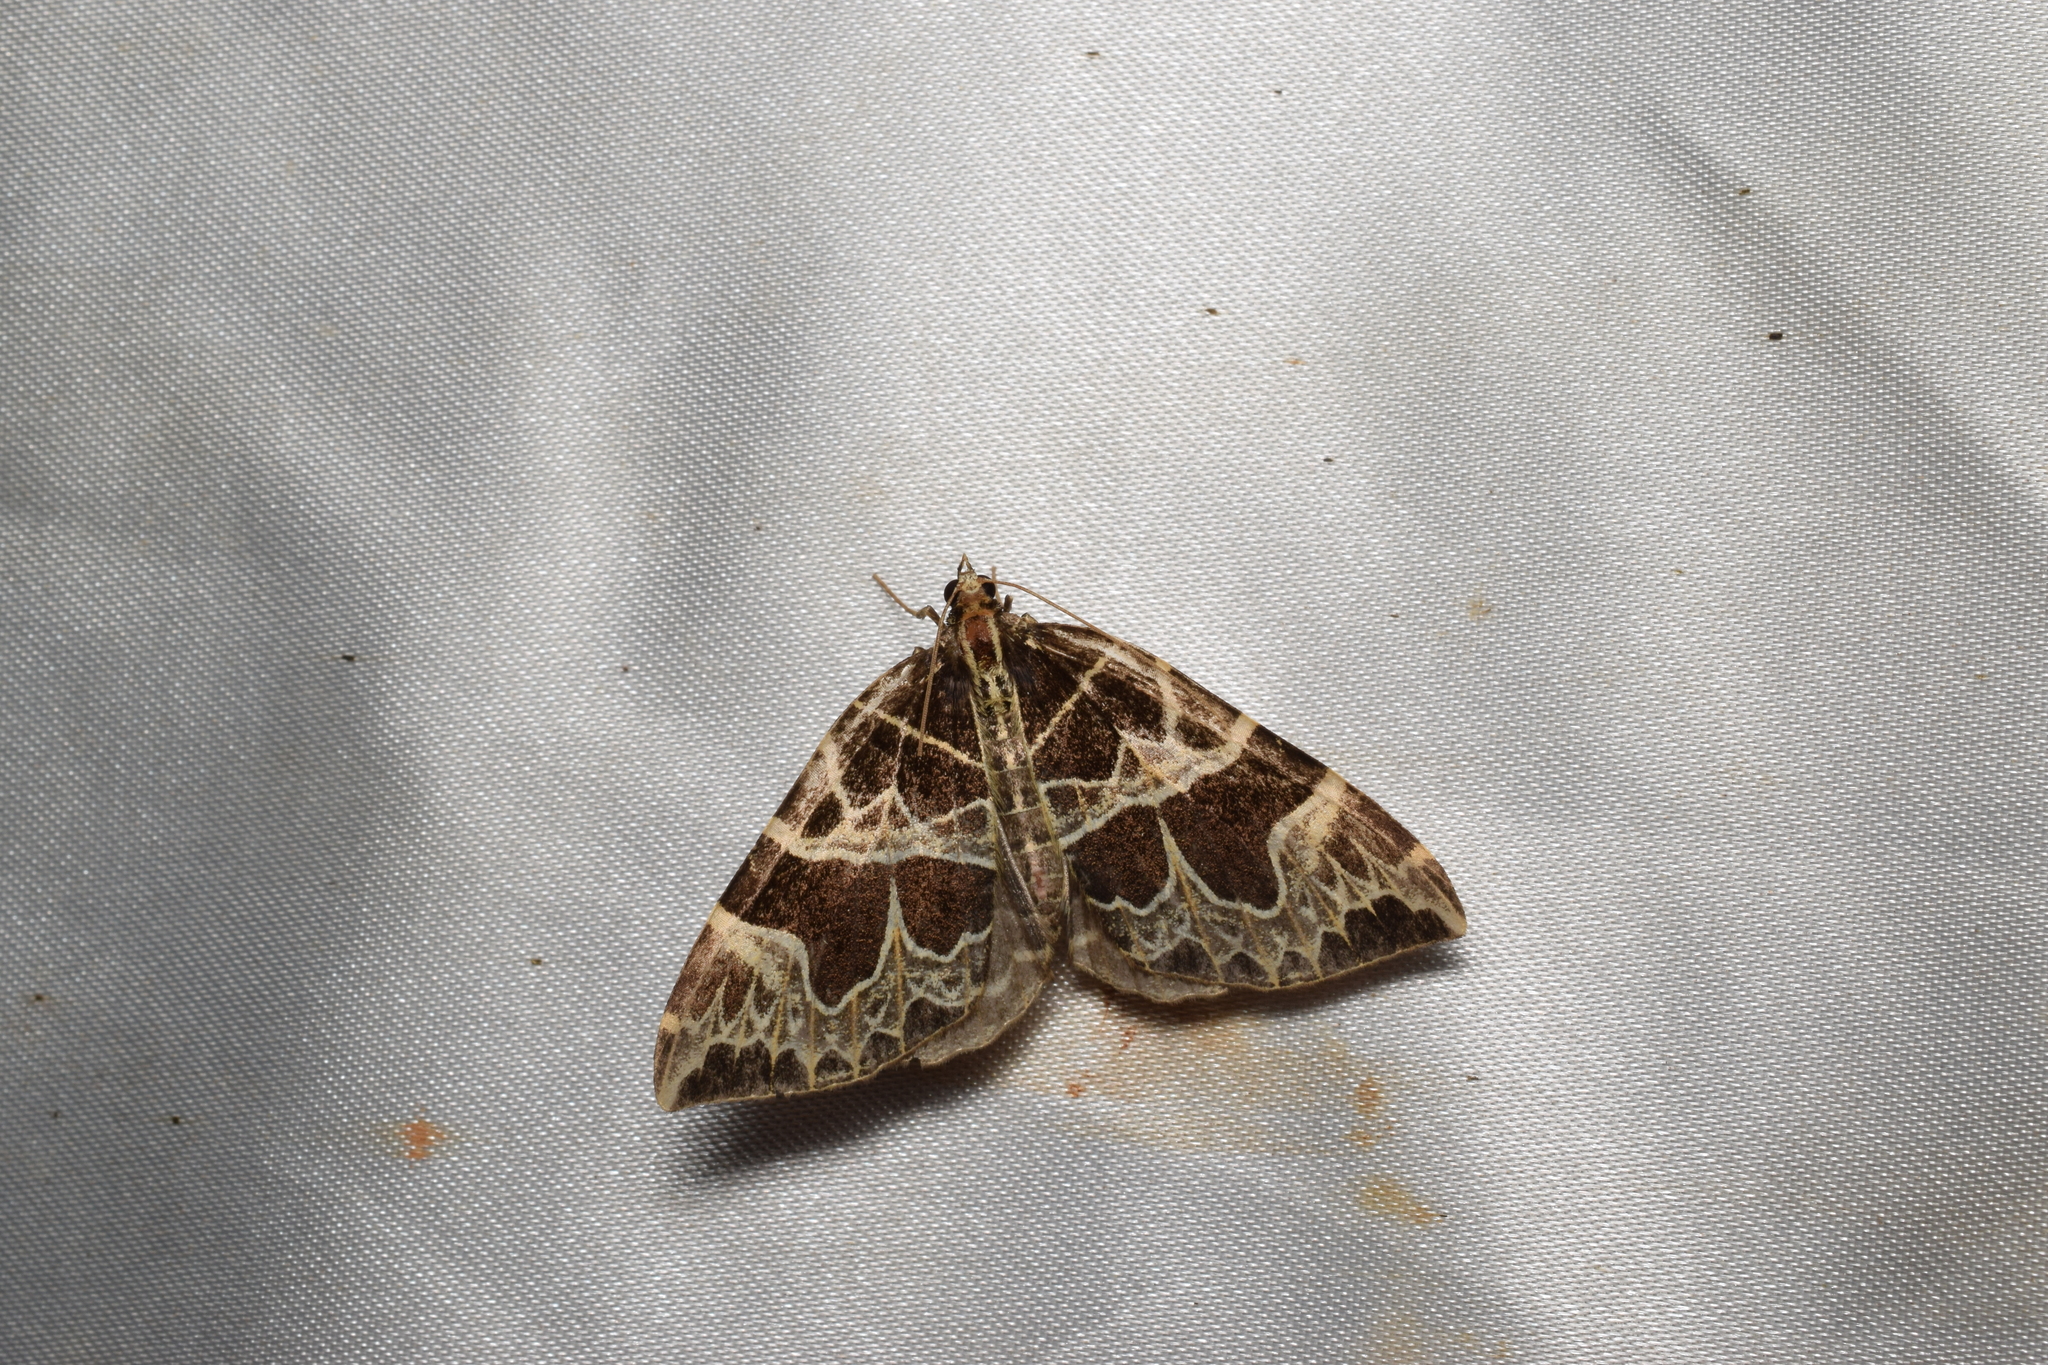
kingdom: Animalia
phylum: Arthropoda
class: Insecta
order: Lepidoptera
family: Geometridae
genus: Sibatania
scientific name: Sibatania mactata
